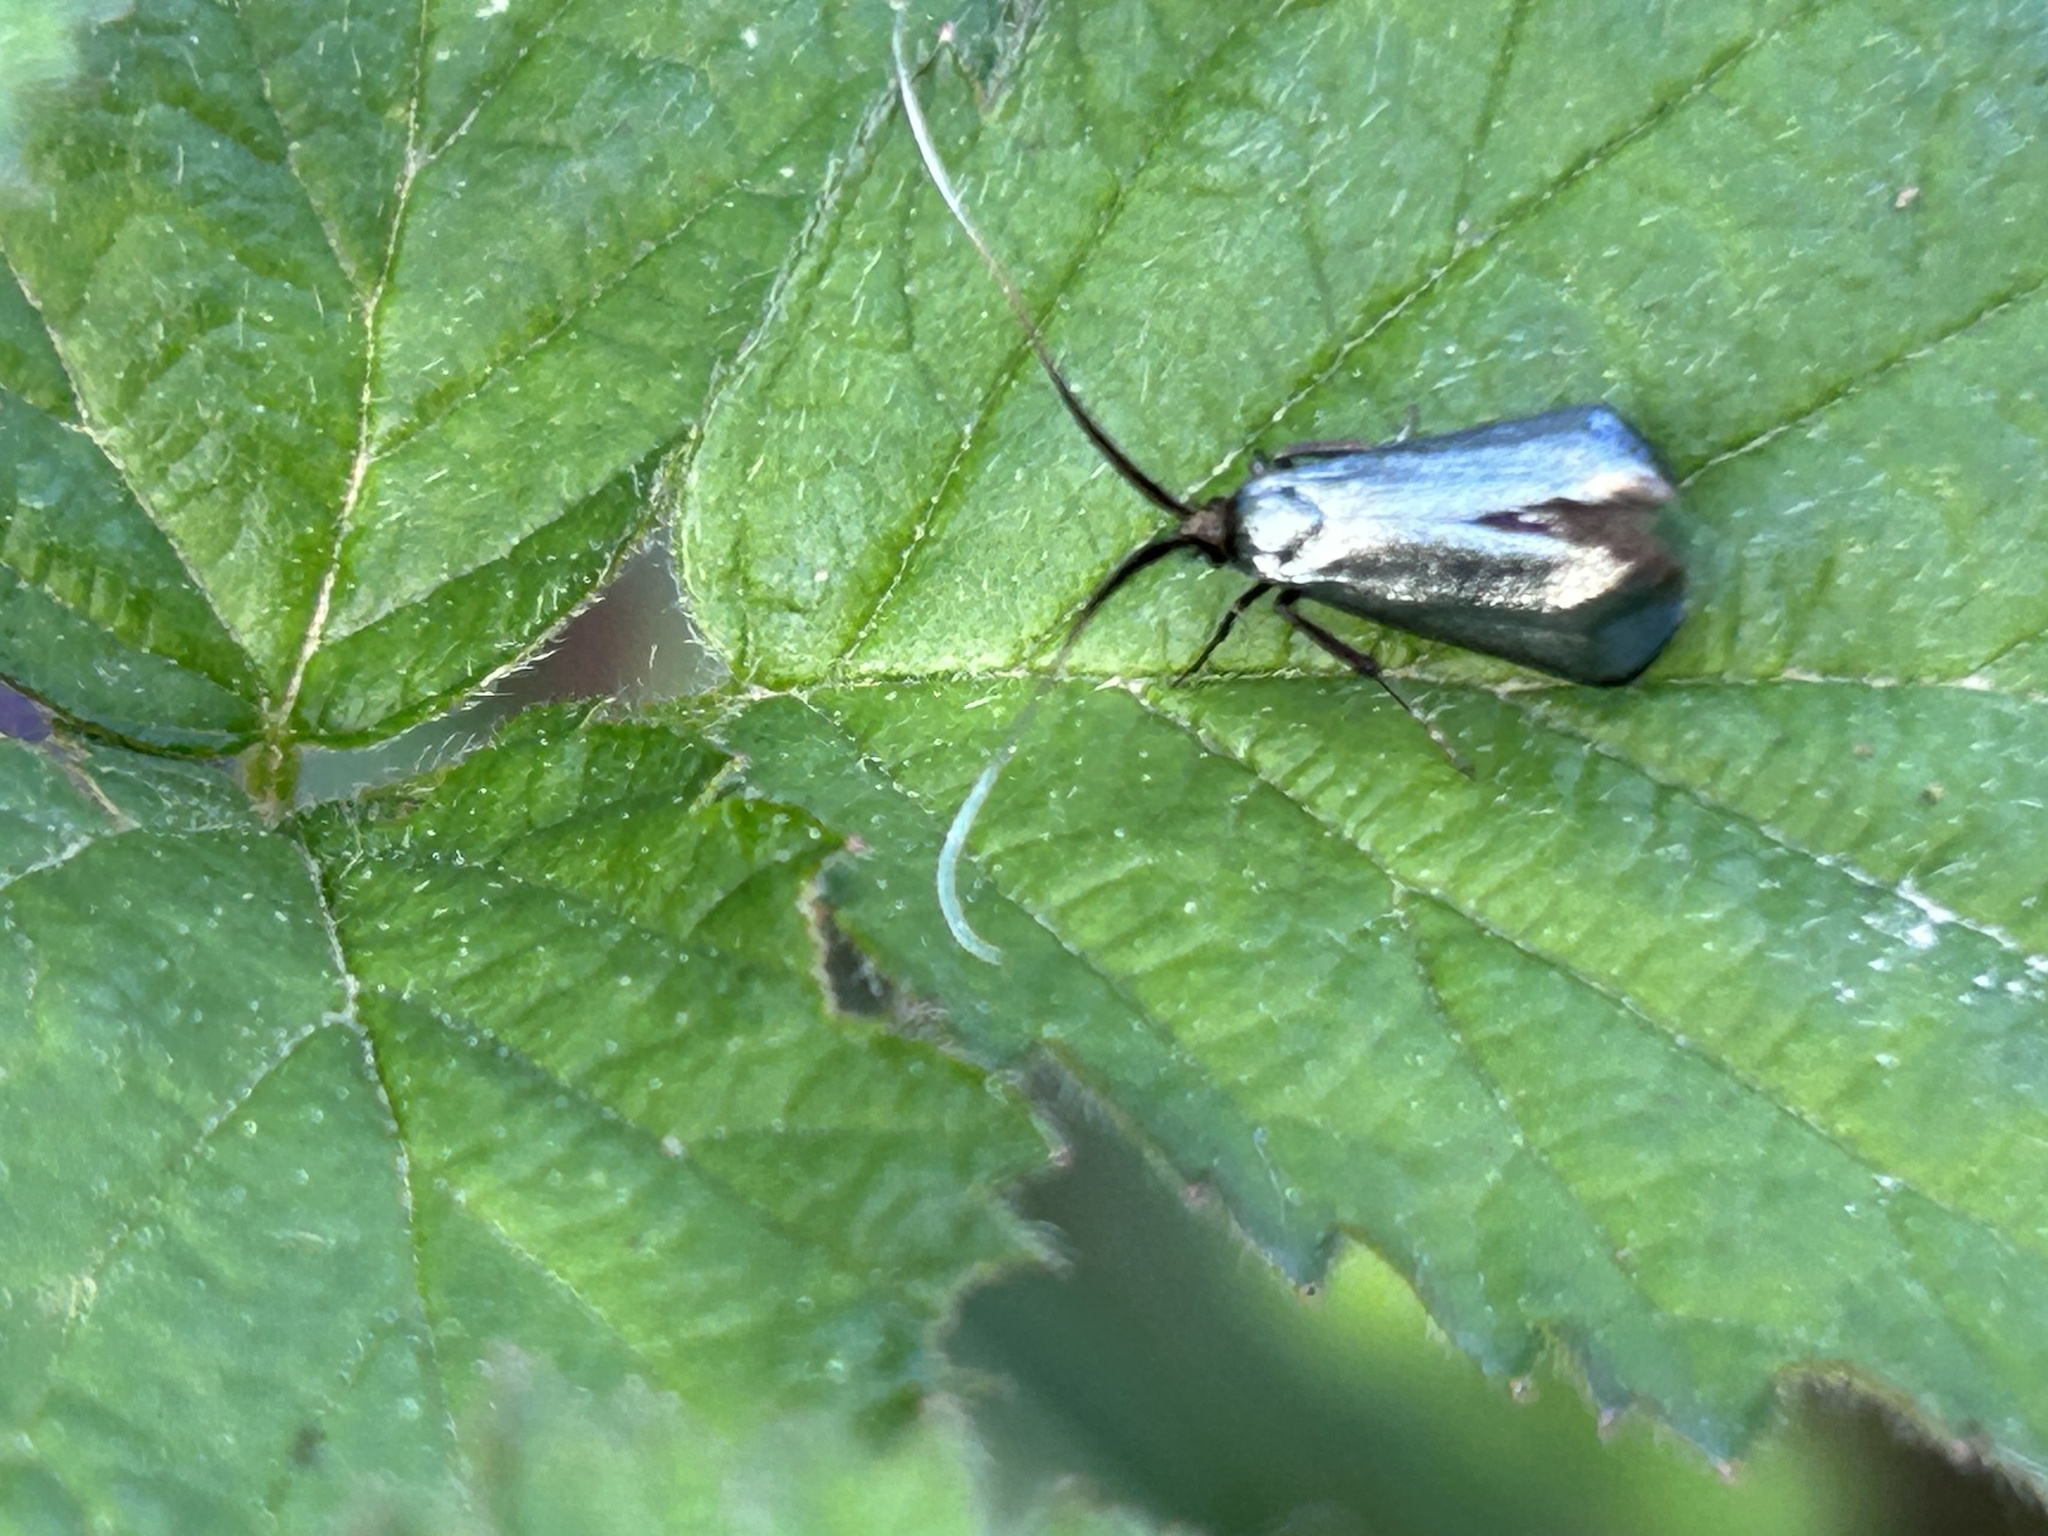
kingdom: Animalia
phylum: Arthropoda
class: Insecta
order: Lepidoptera
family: Adelidae
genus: Adela
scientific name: Adela viridella
